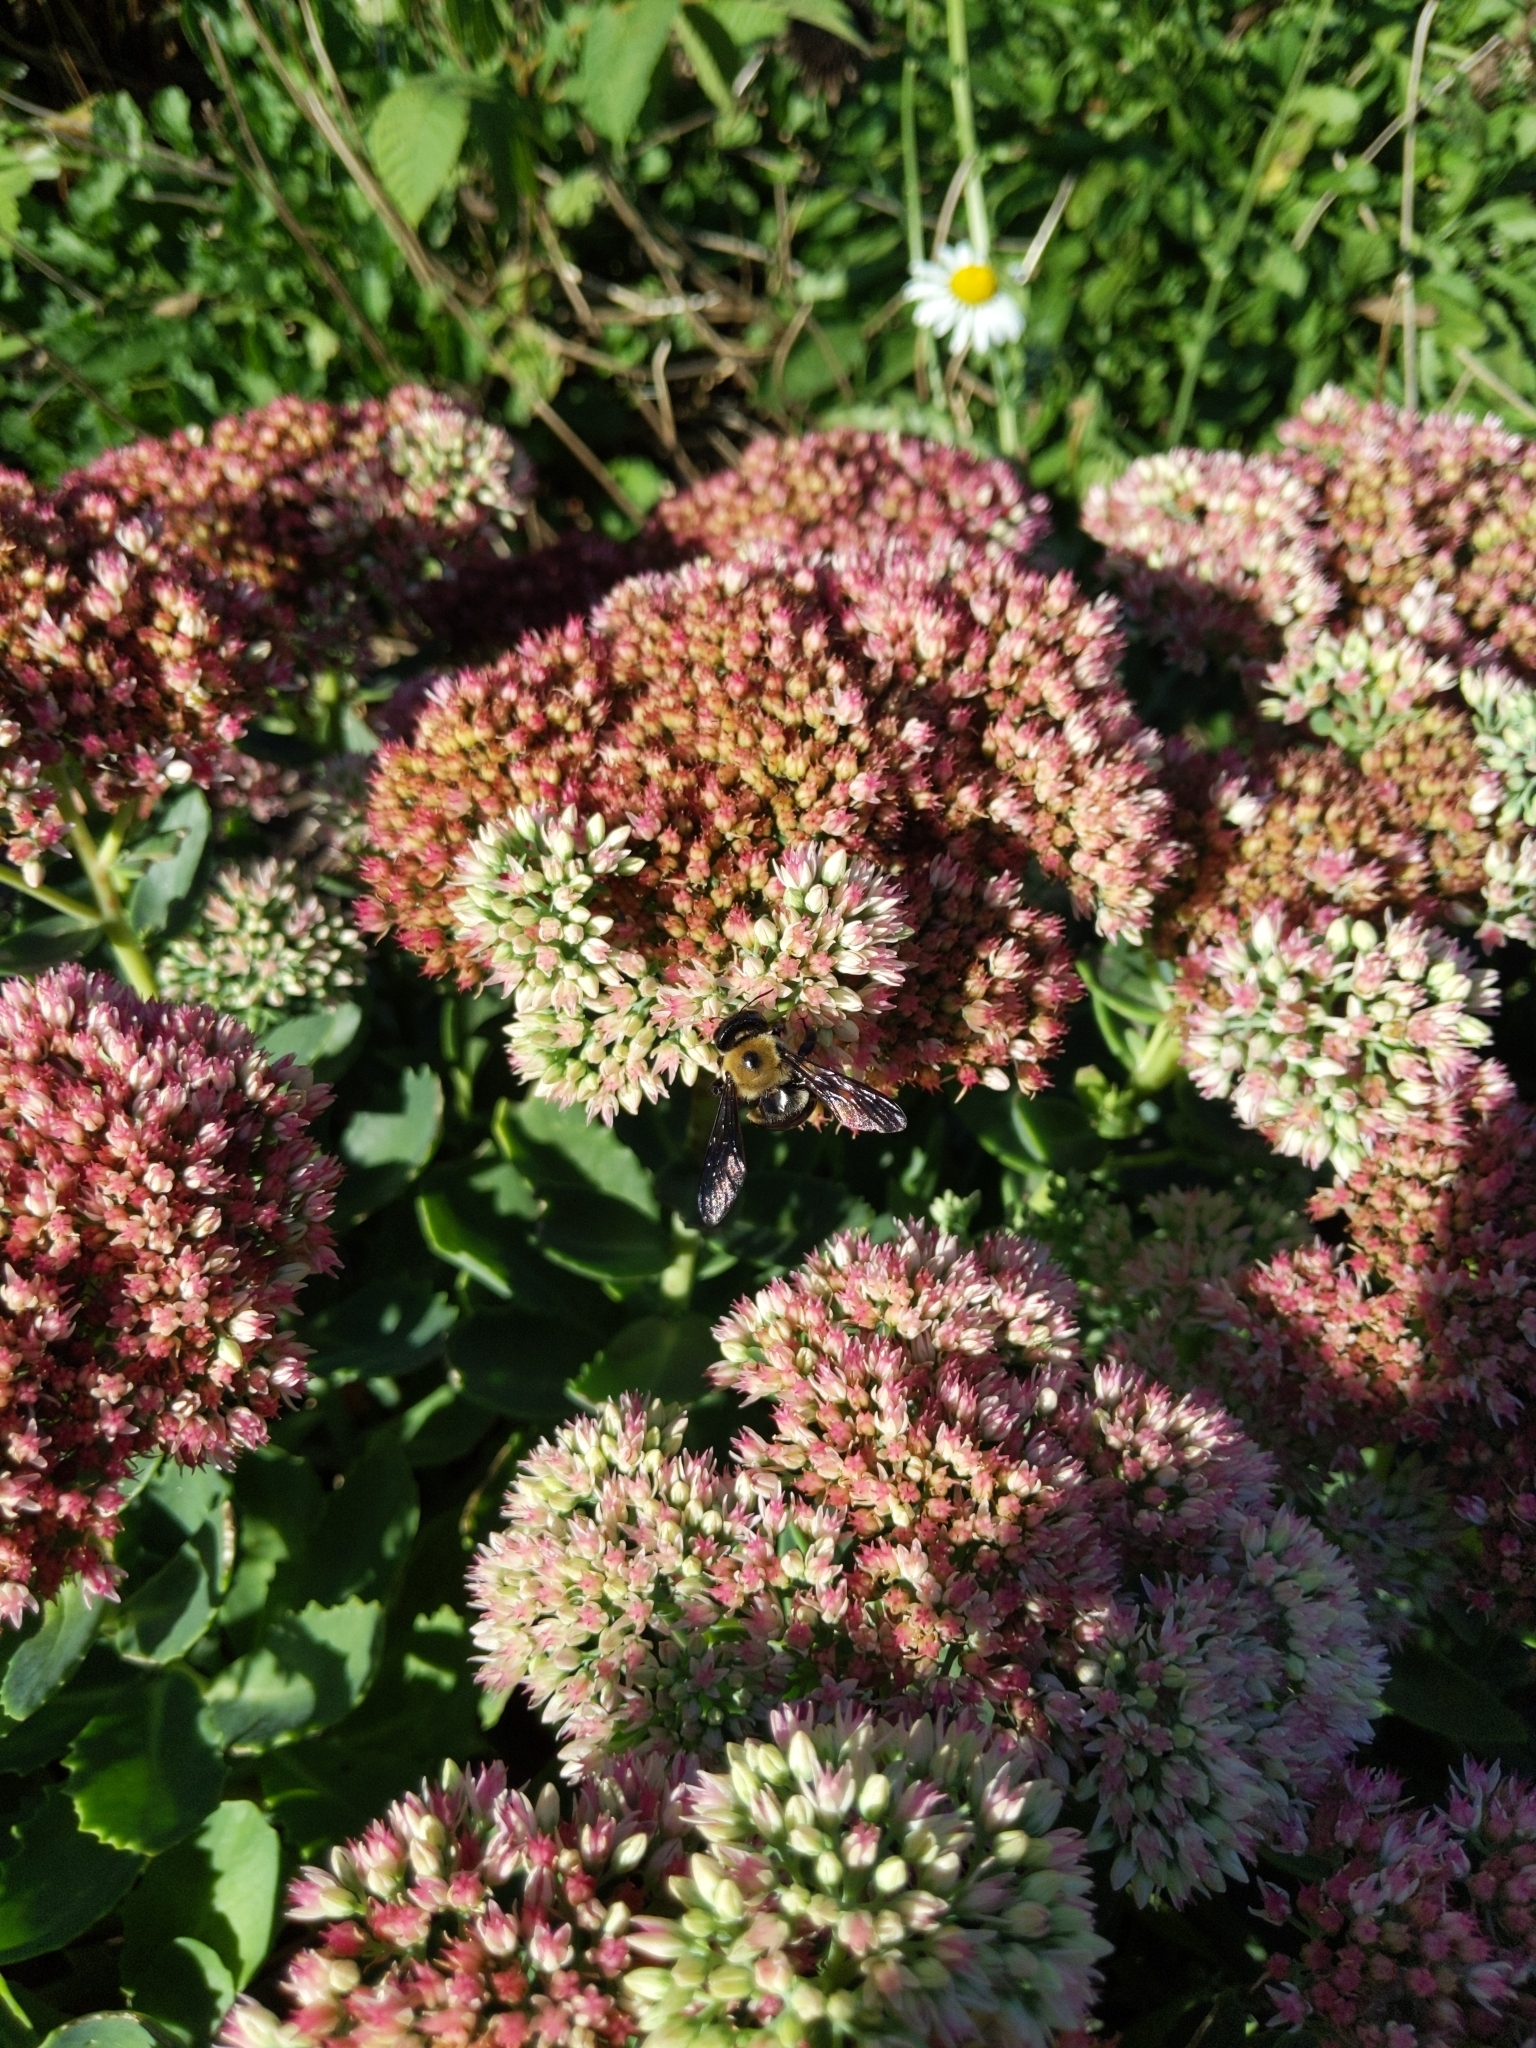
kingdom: Animalia
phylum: Arthropoda
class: Insecta
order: Hymenoptera
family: Apidae
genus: Xylocopa
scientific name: Xylocopa virginica
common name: Carpenter bee
